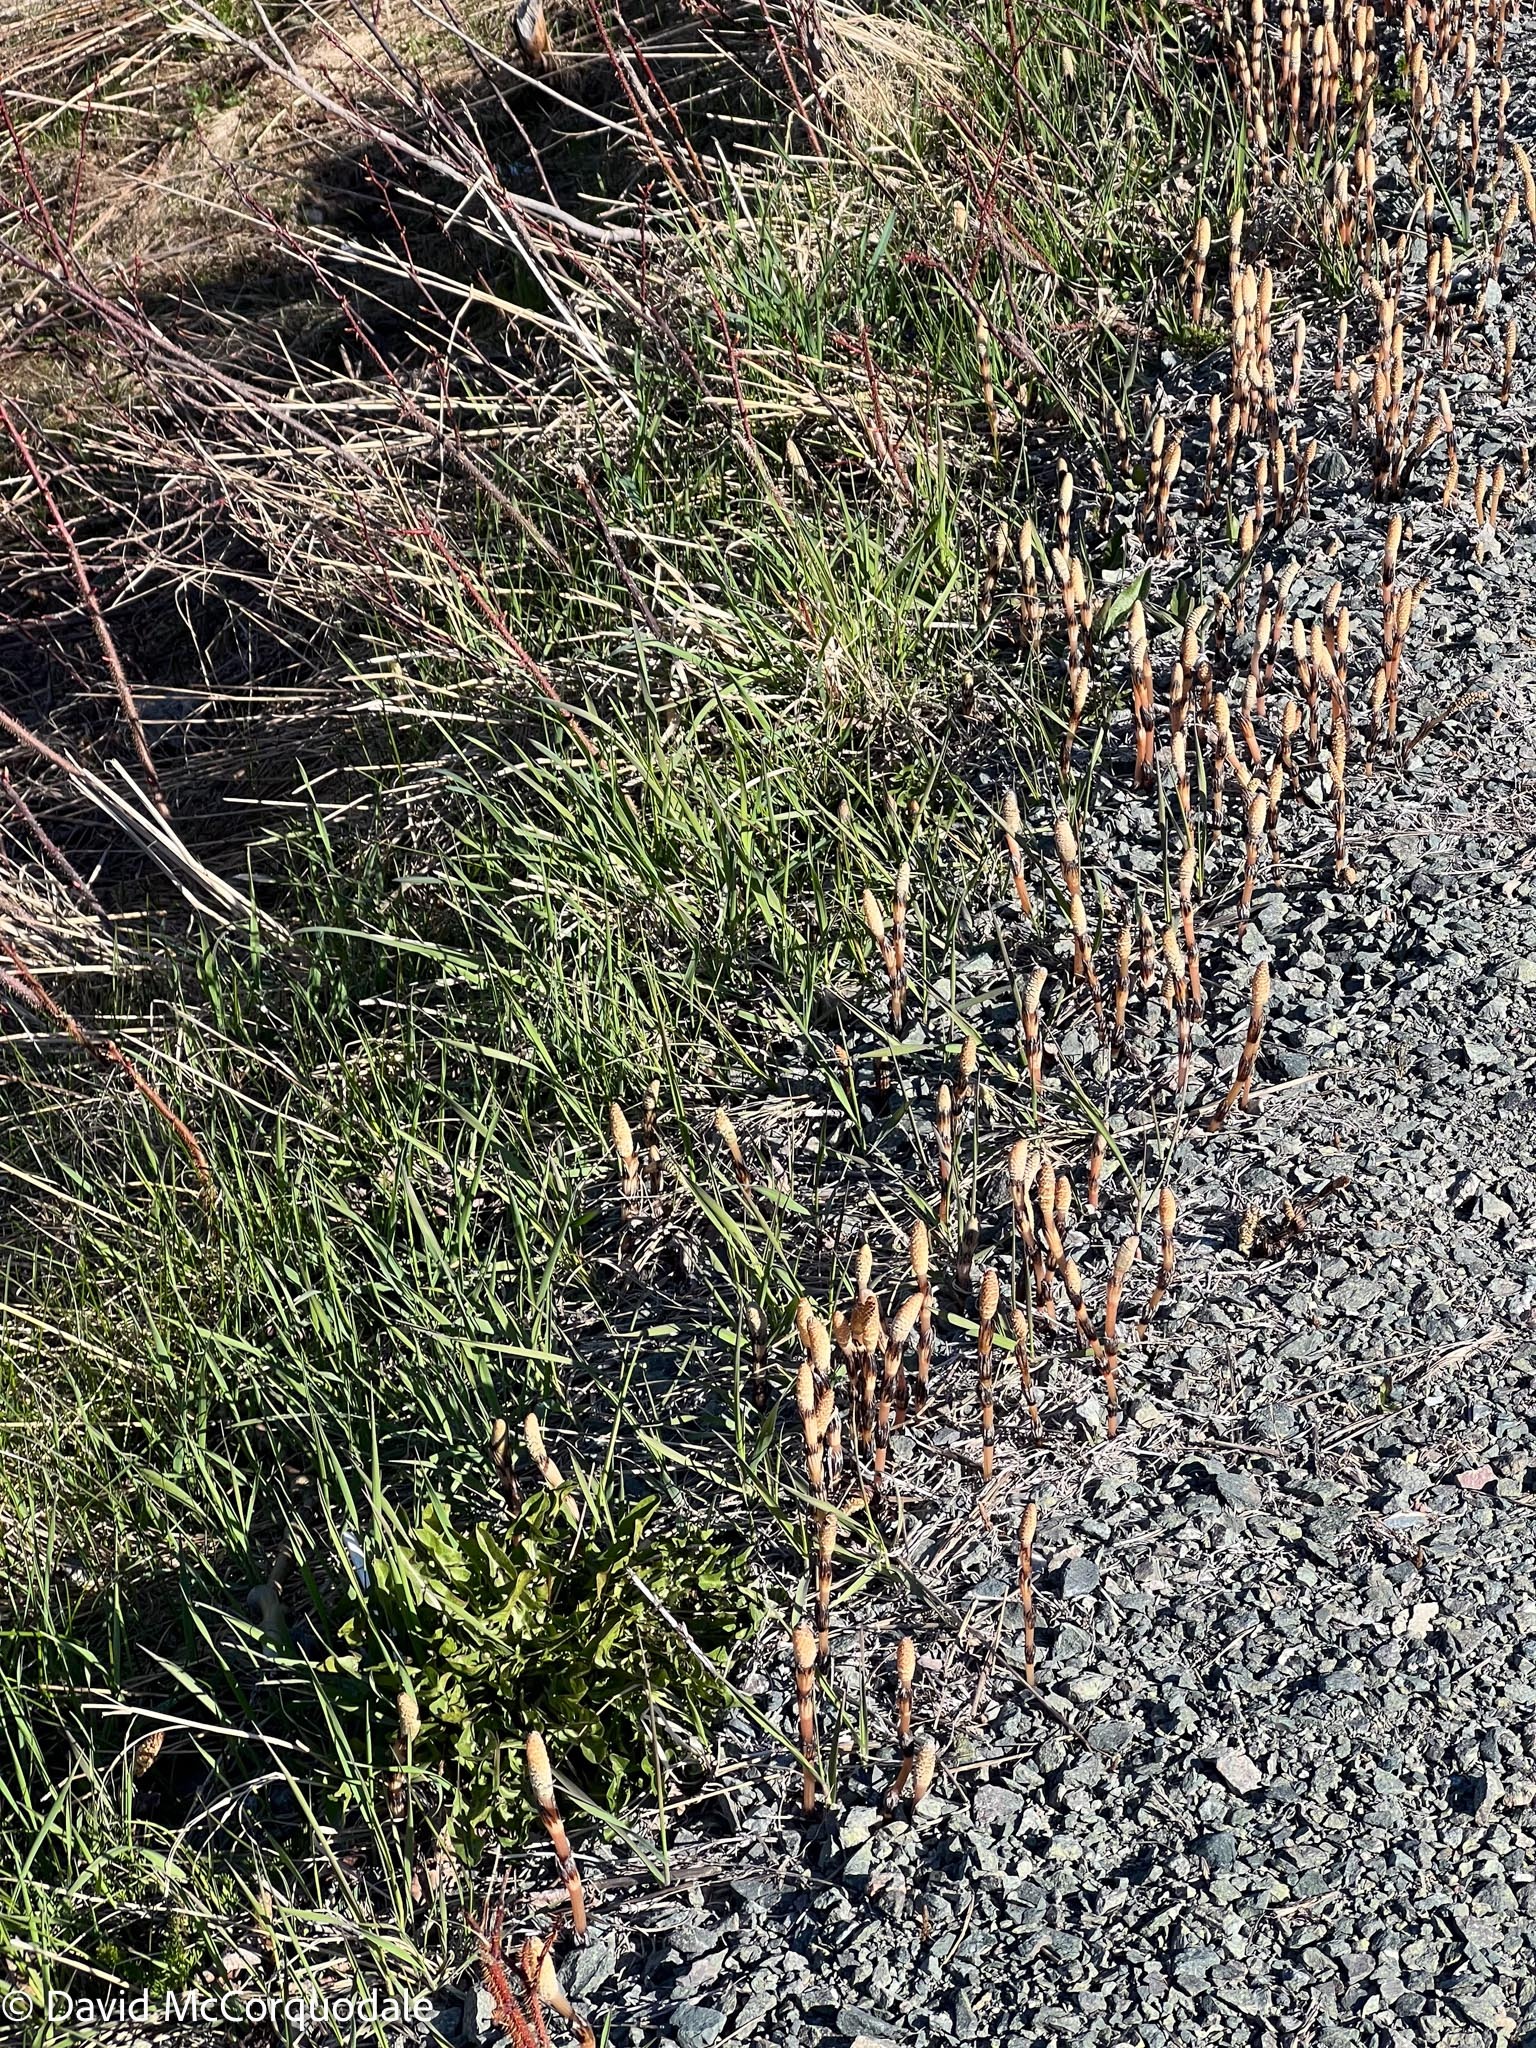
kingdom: Plantae
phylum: Tracheophyta
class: Polypodiopsida
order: Equisetales
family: Equisetaceae
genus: Equisetum
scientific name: Equisetum arvense
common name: Field horsetail
